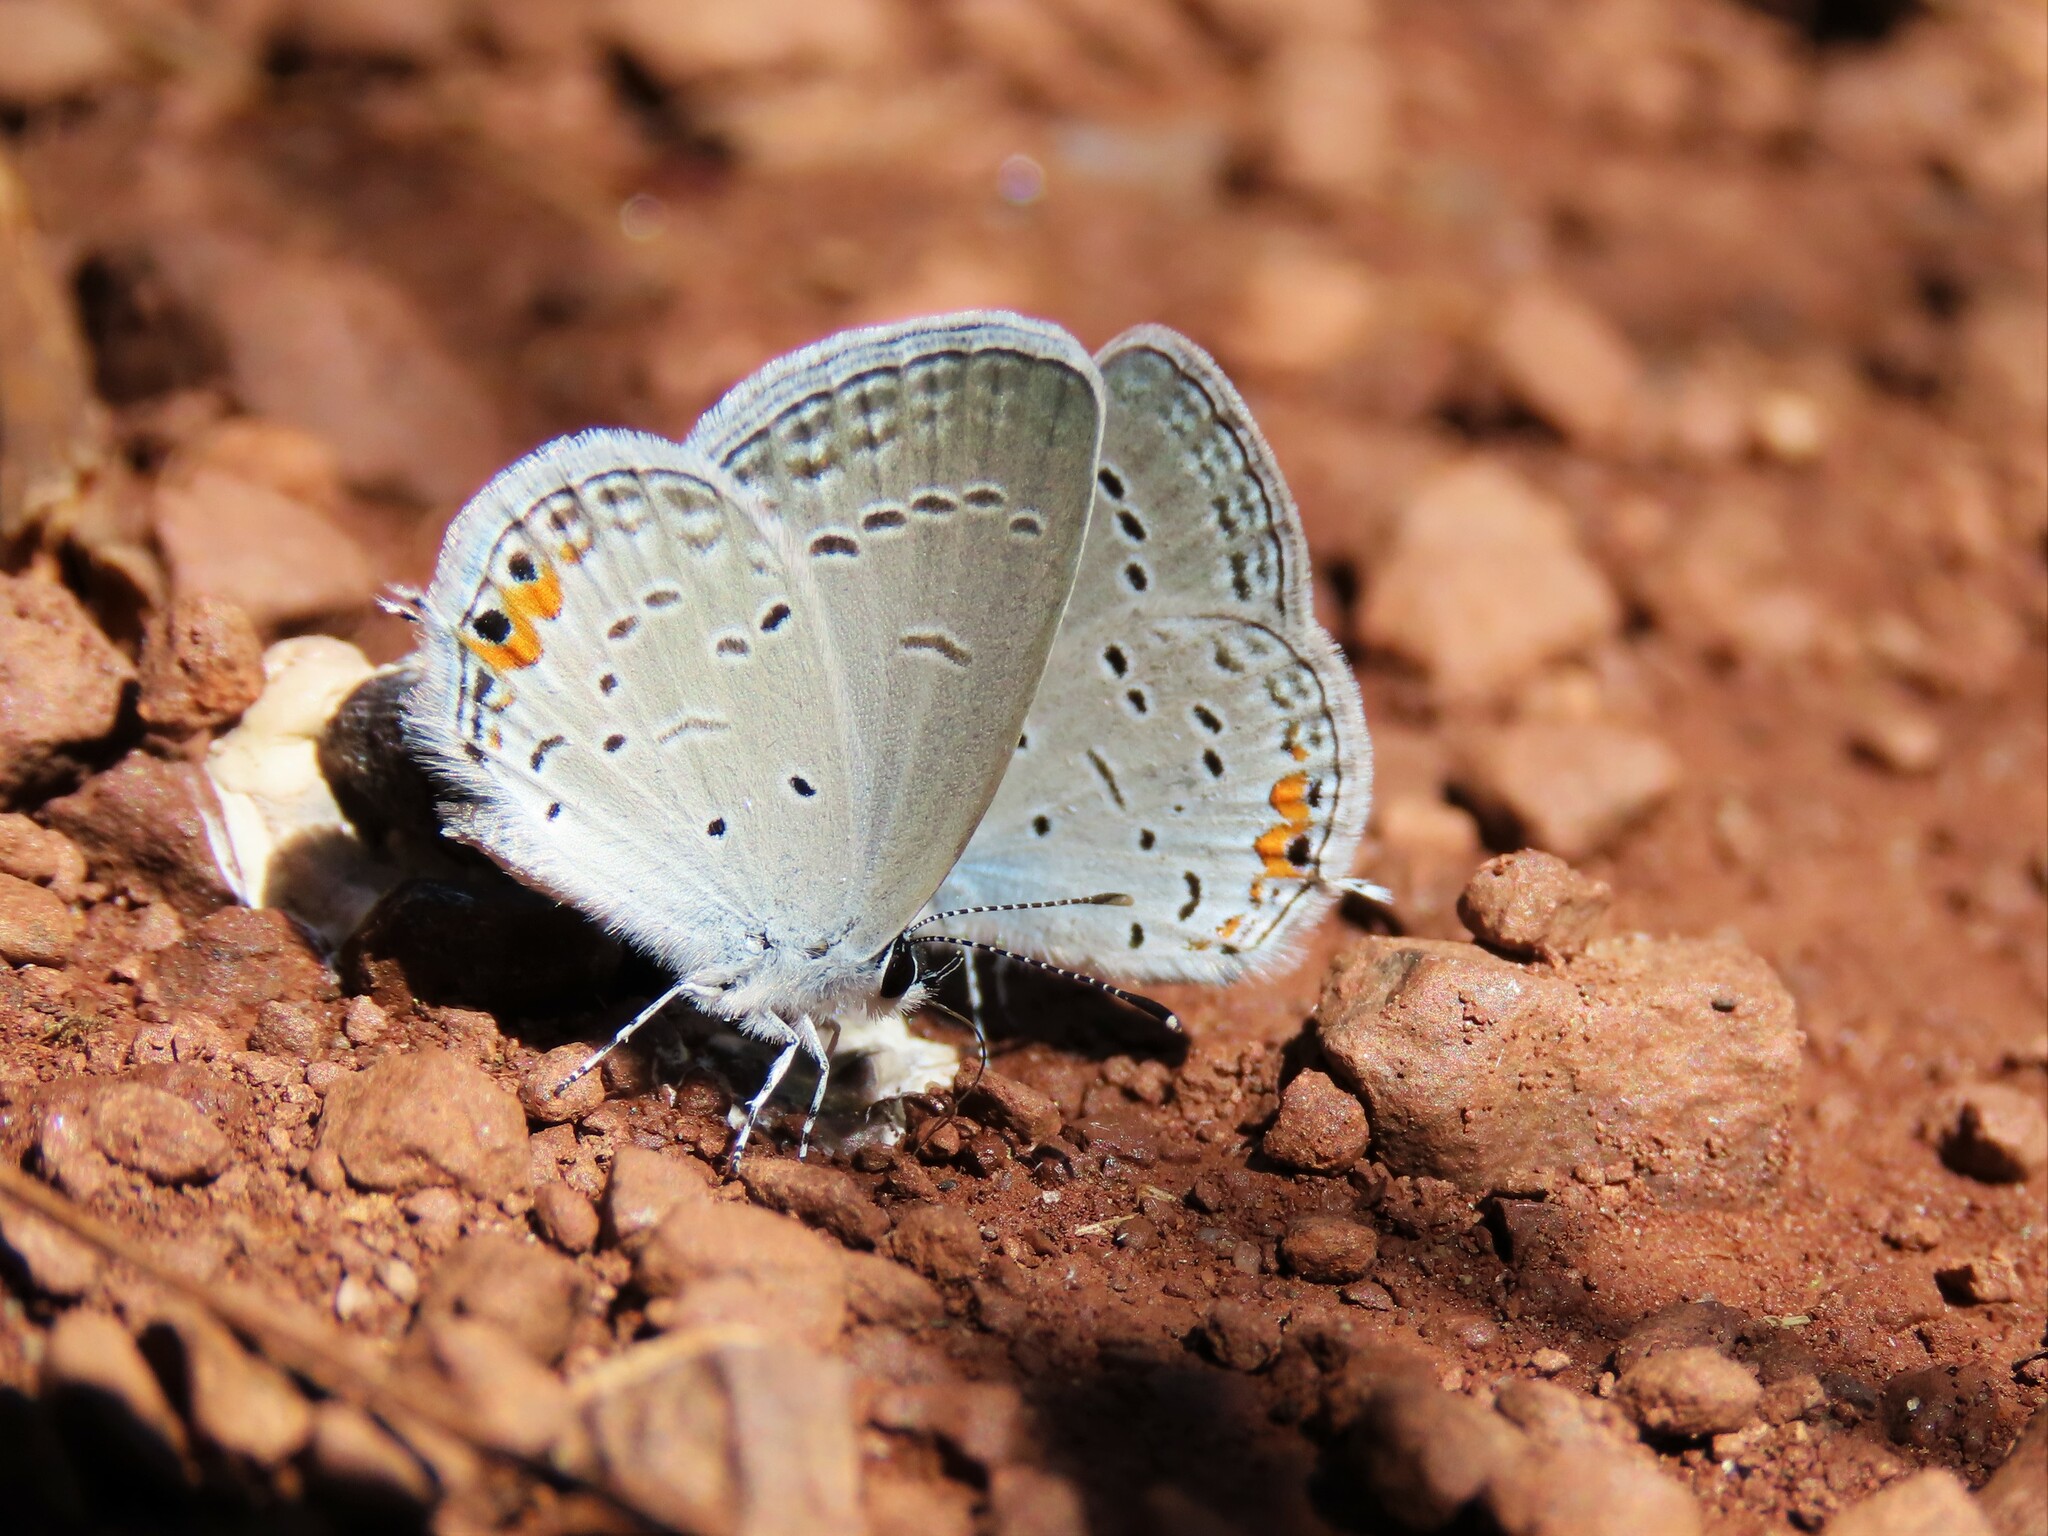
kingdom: Animalia
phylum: Arthropoda
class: Insecta
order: Lepidoptera
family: Lycaenidae
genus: Elkalyce
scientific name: Elkalyce comyntas
